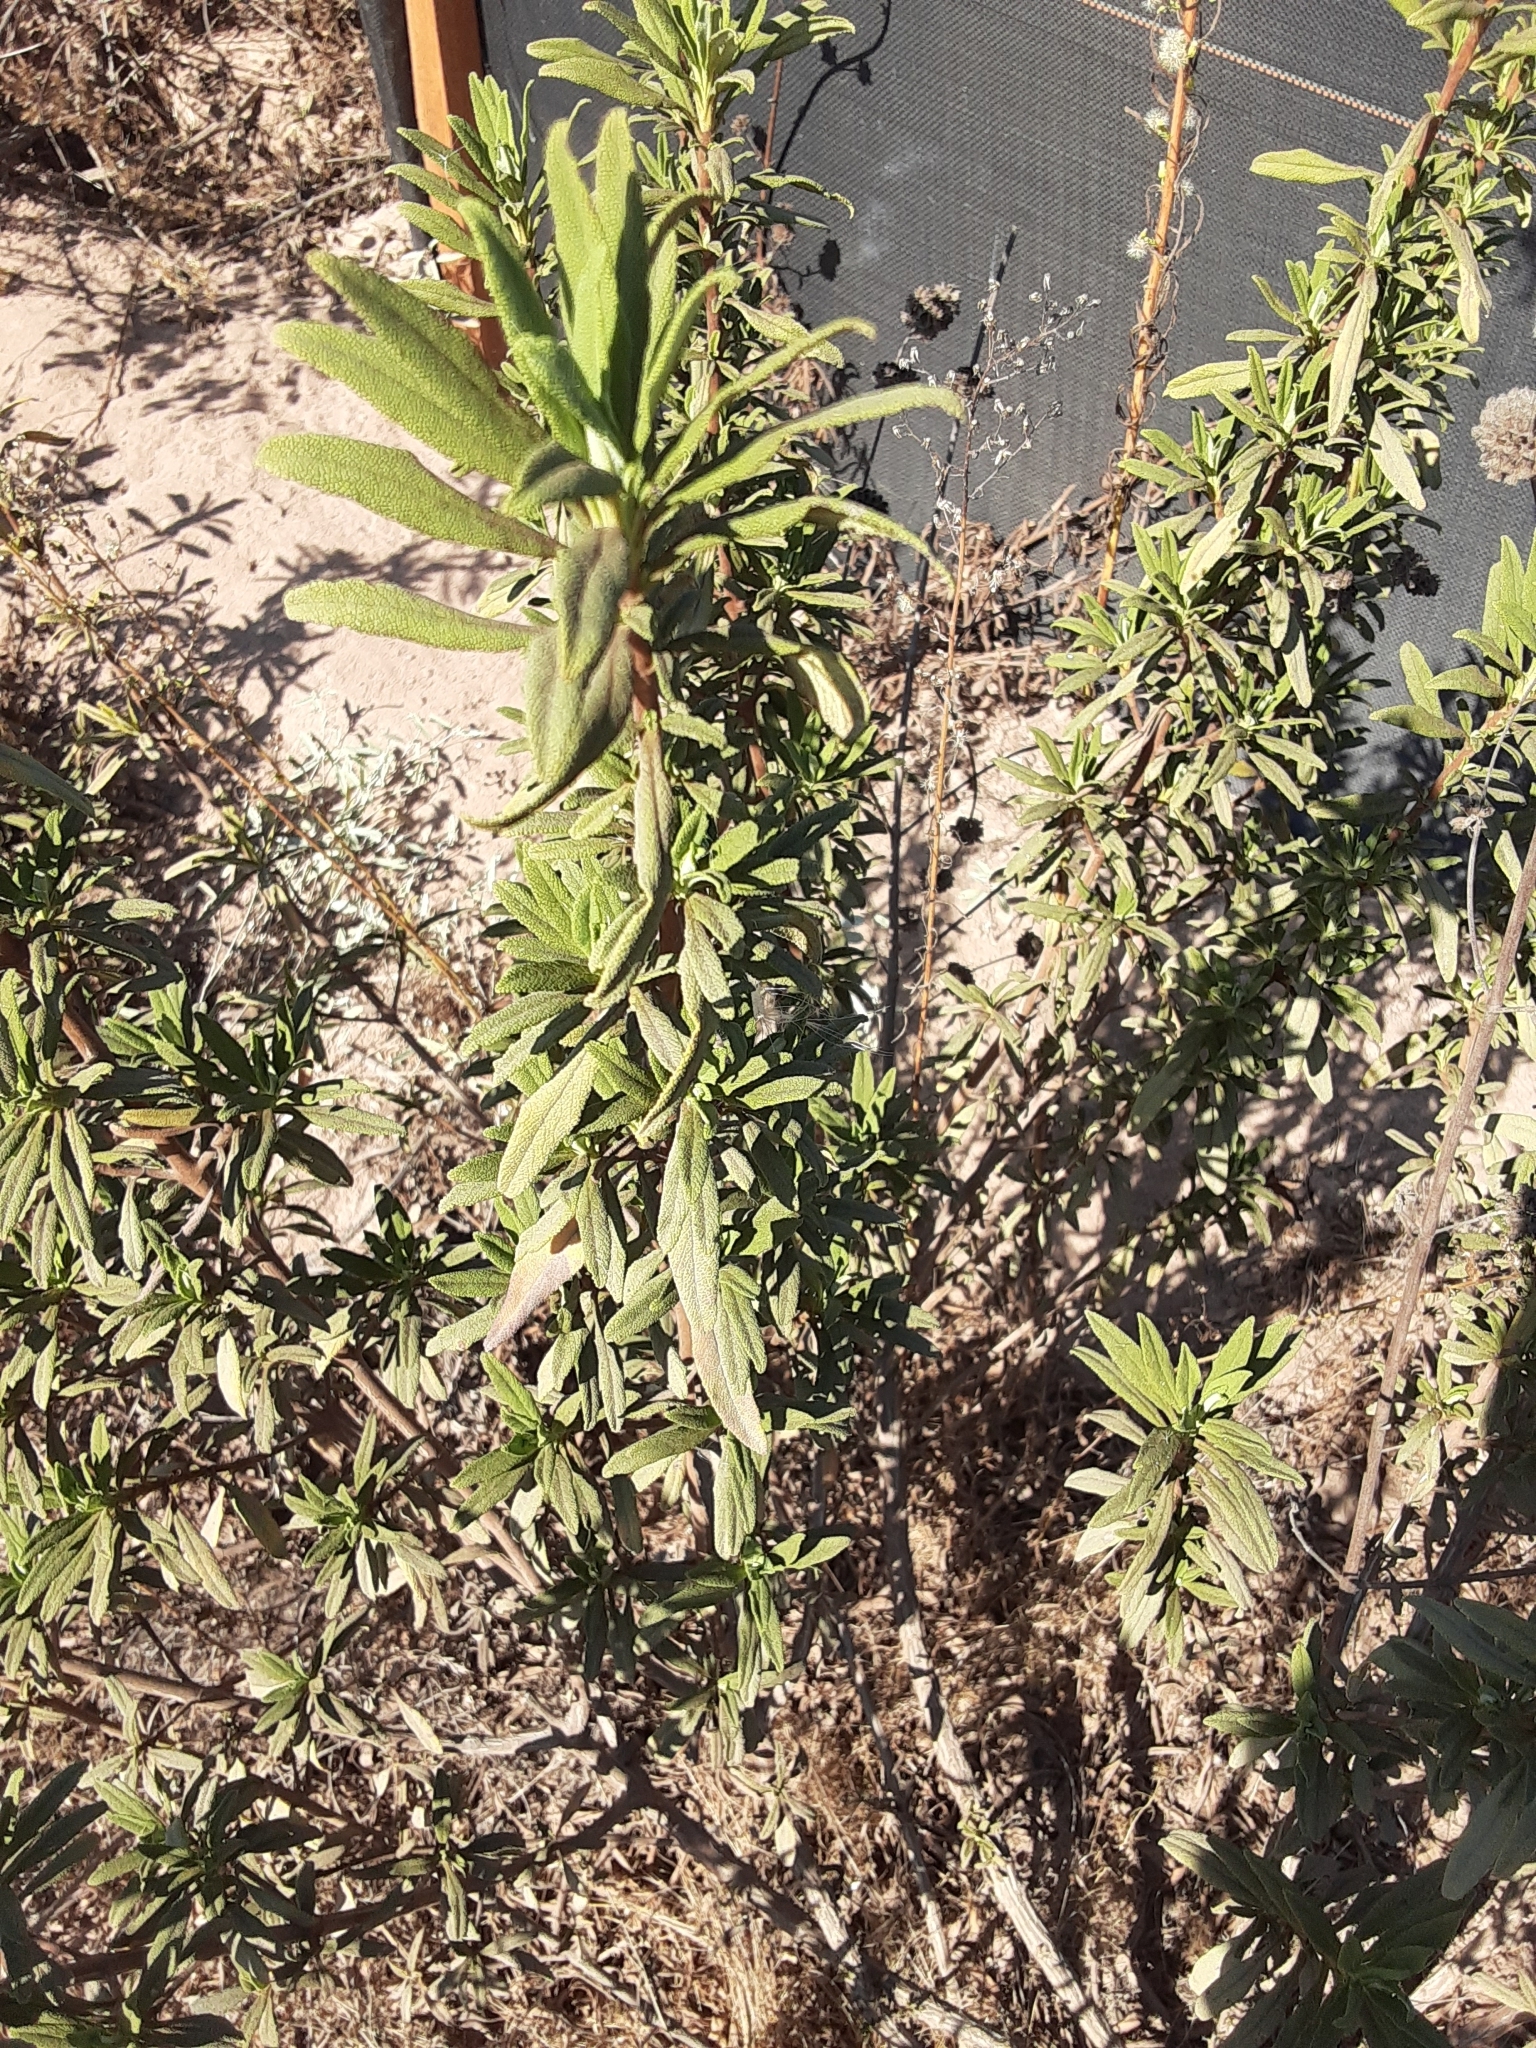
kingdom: Plantae
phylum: Tracheophyta
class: Magnoliopsida
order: Lamiales
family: Lamiaceae
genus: Salvia
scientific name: Salvia mellifera
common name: Black sage
